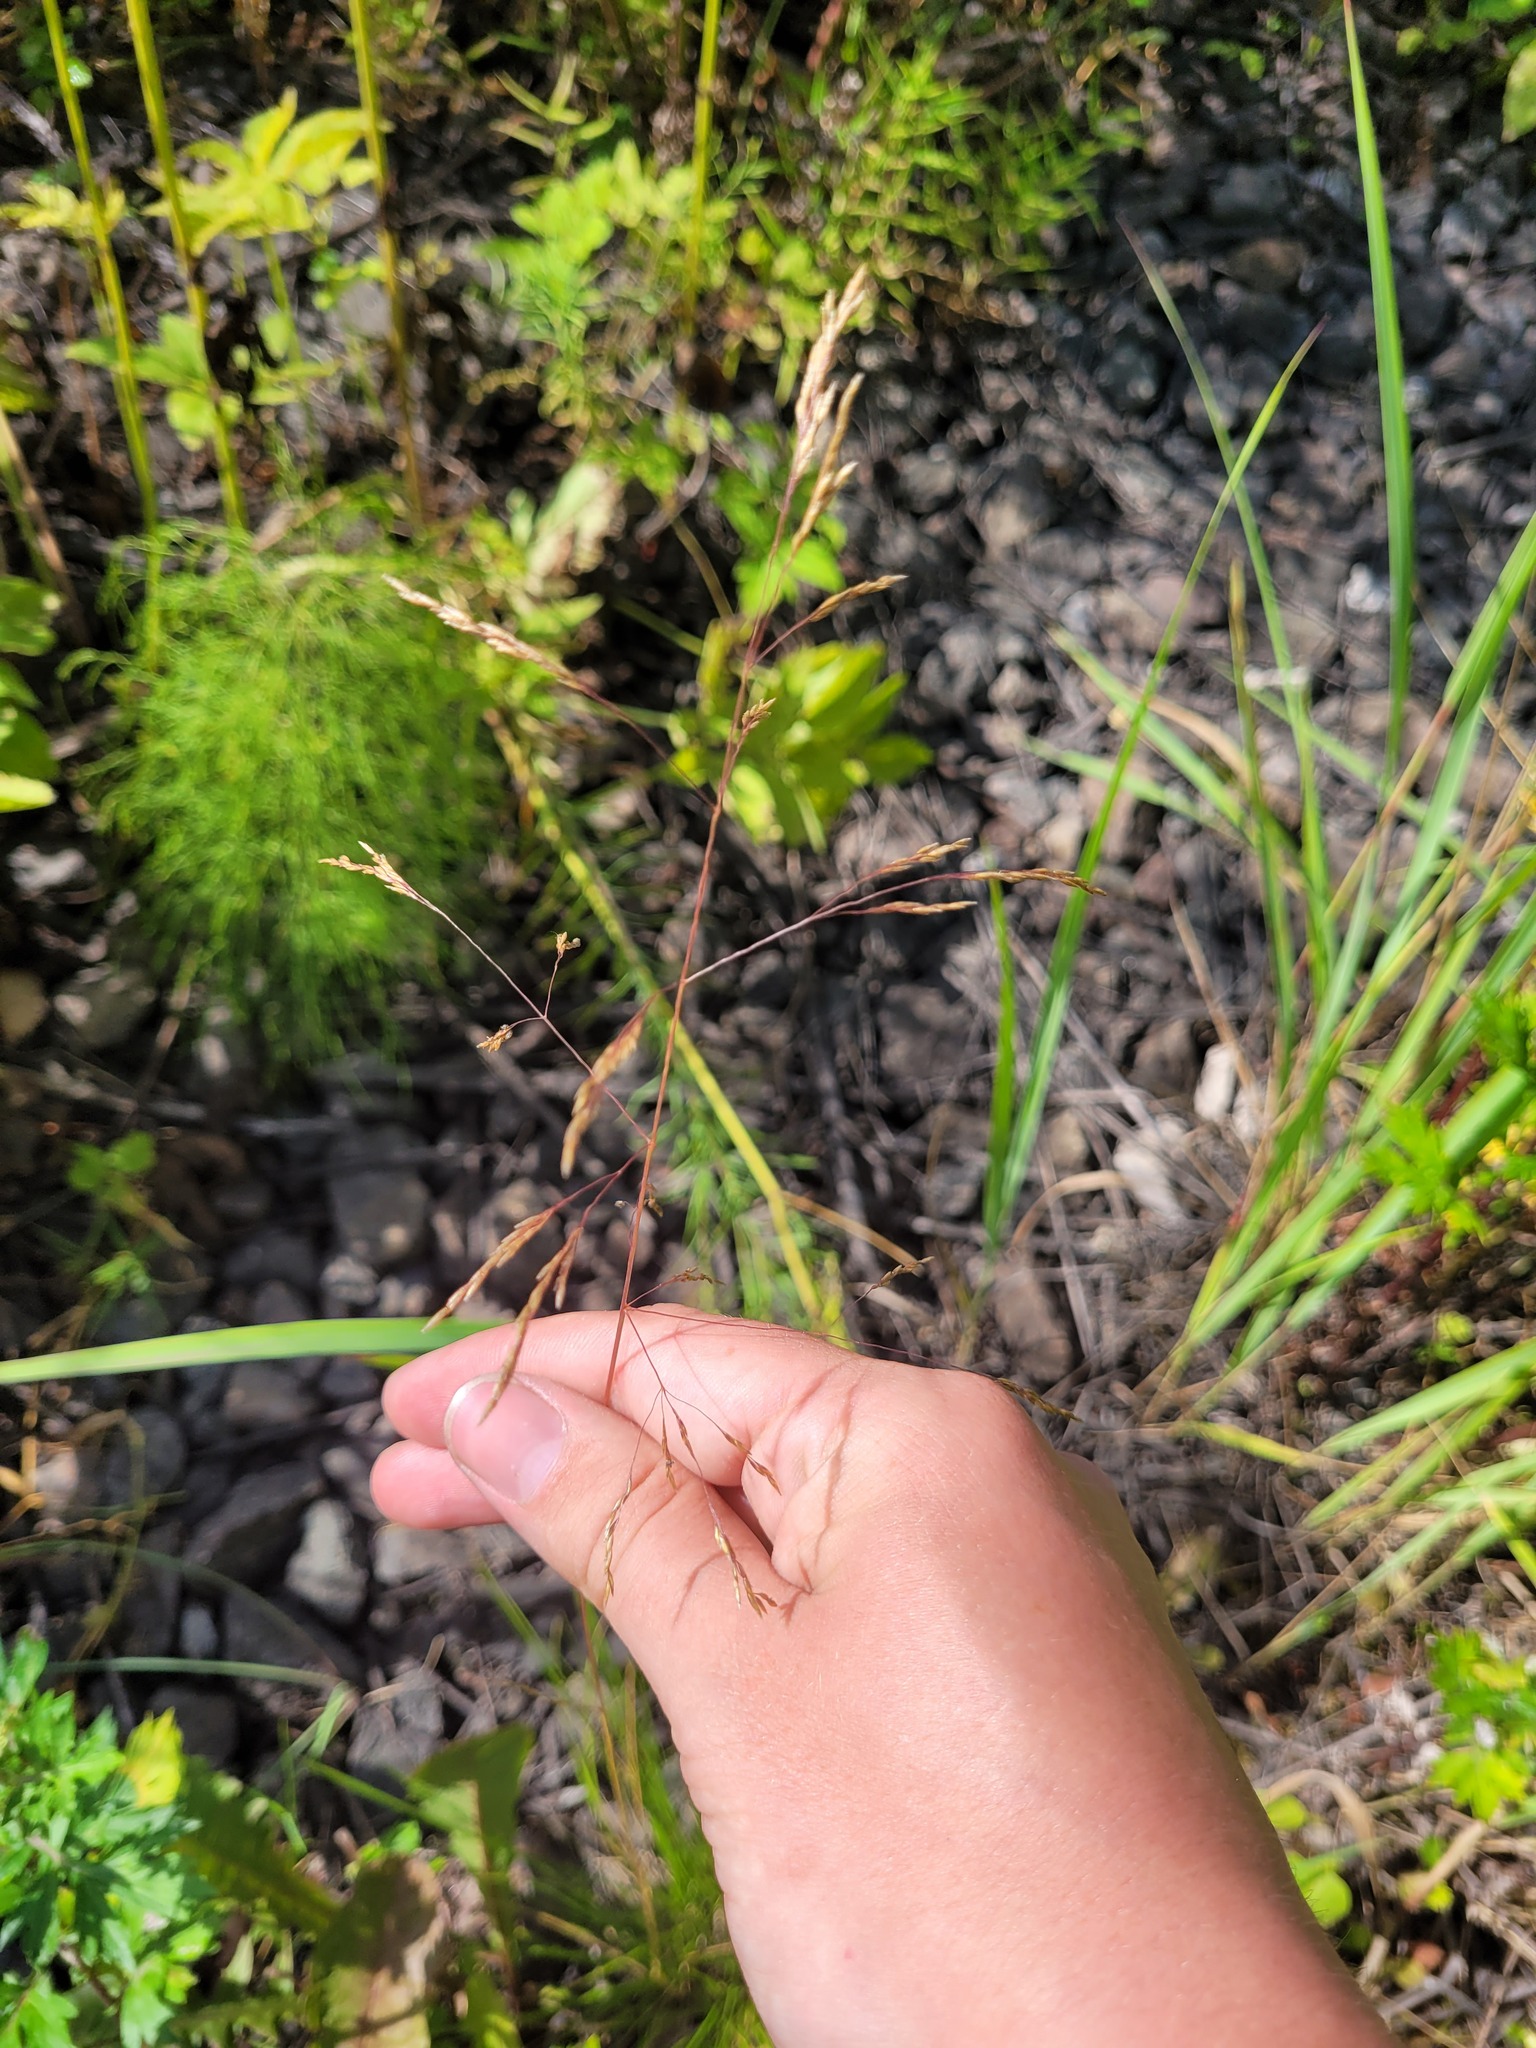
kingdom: Plantae
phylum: Tracheophyta
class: Liliopsida
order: Poales
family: Poaceae
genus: Deschampsia
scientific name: Deschampsia cespitosa
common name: Tufted hair-grass
